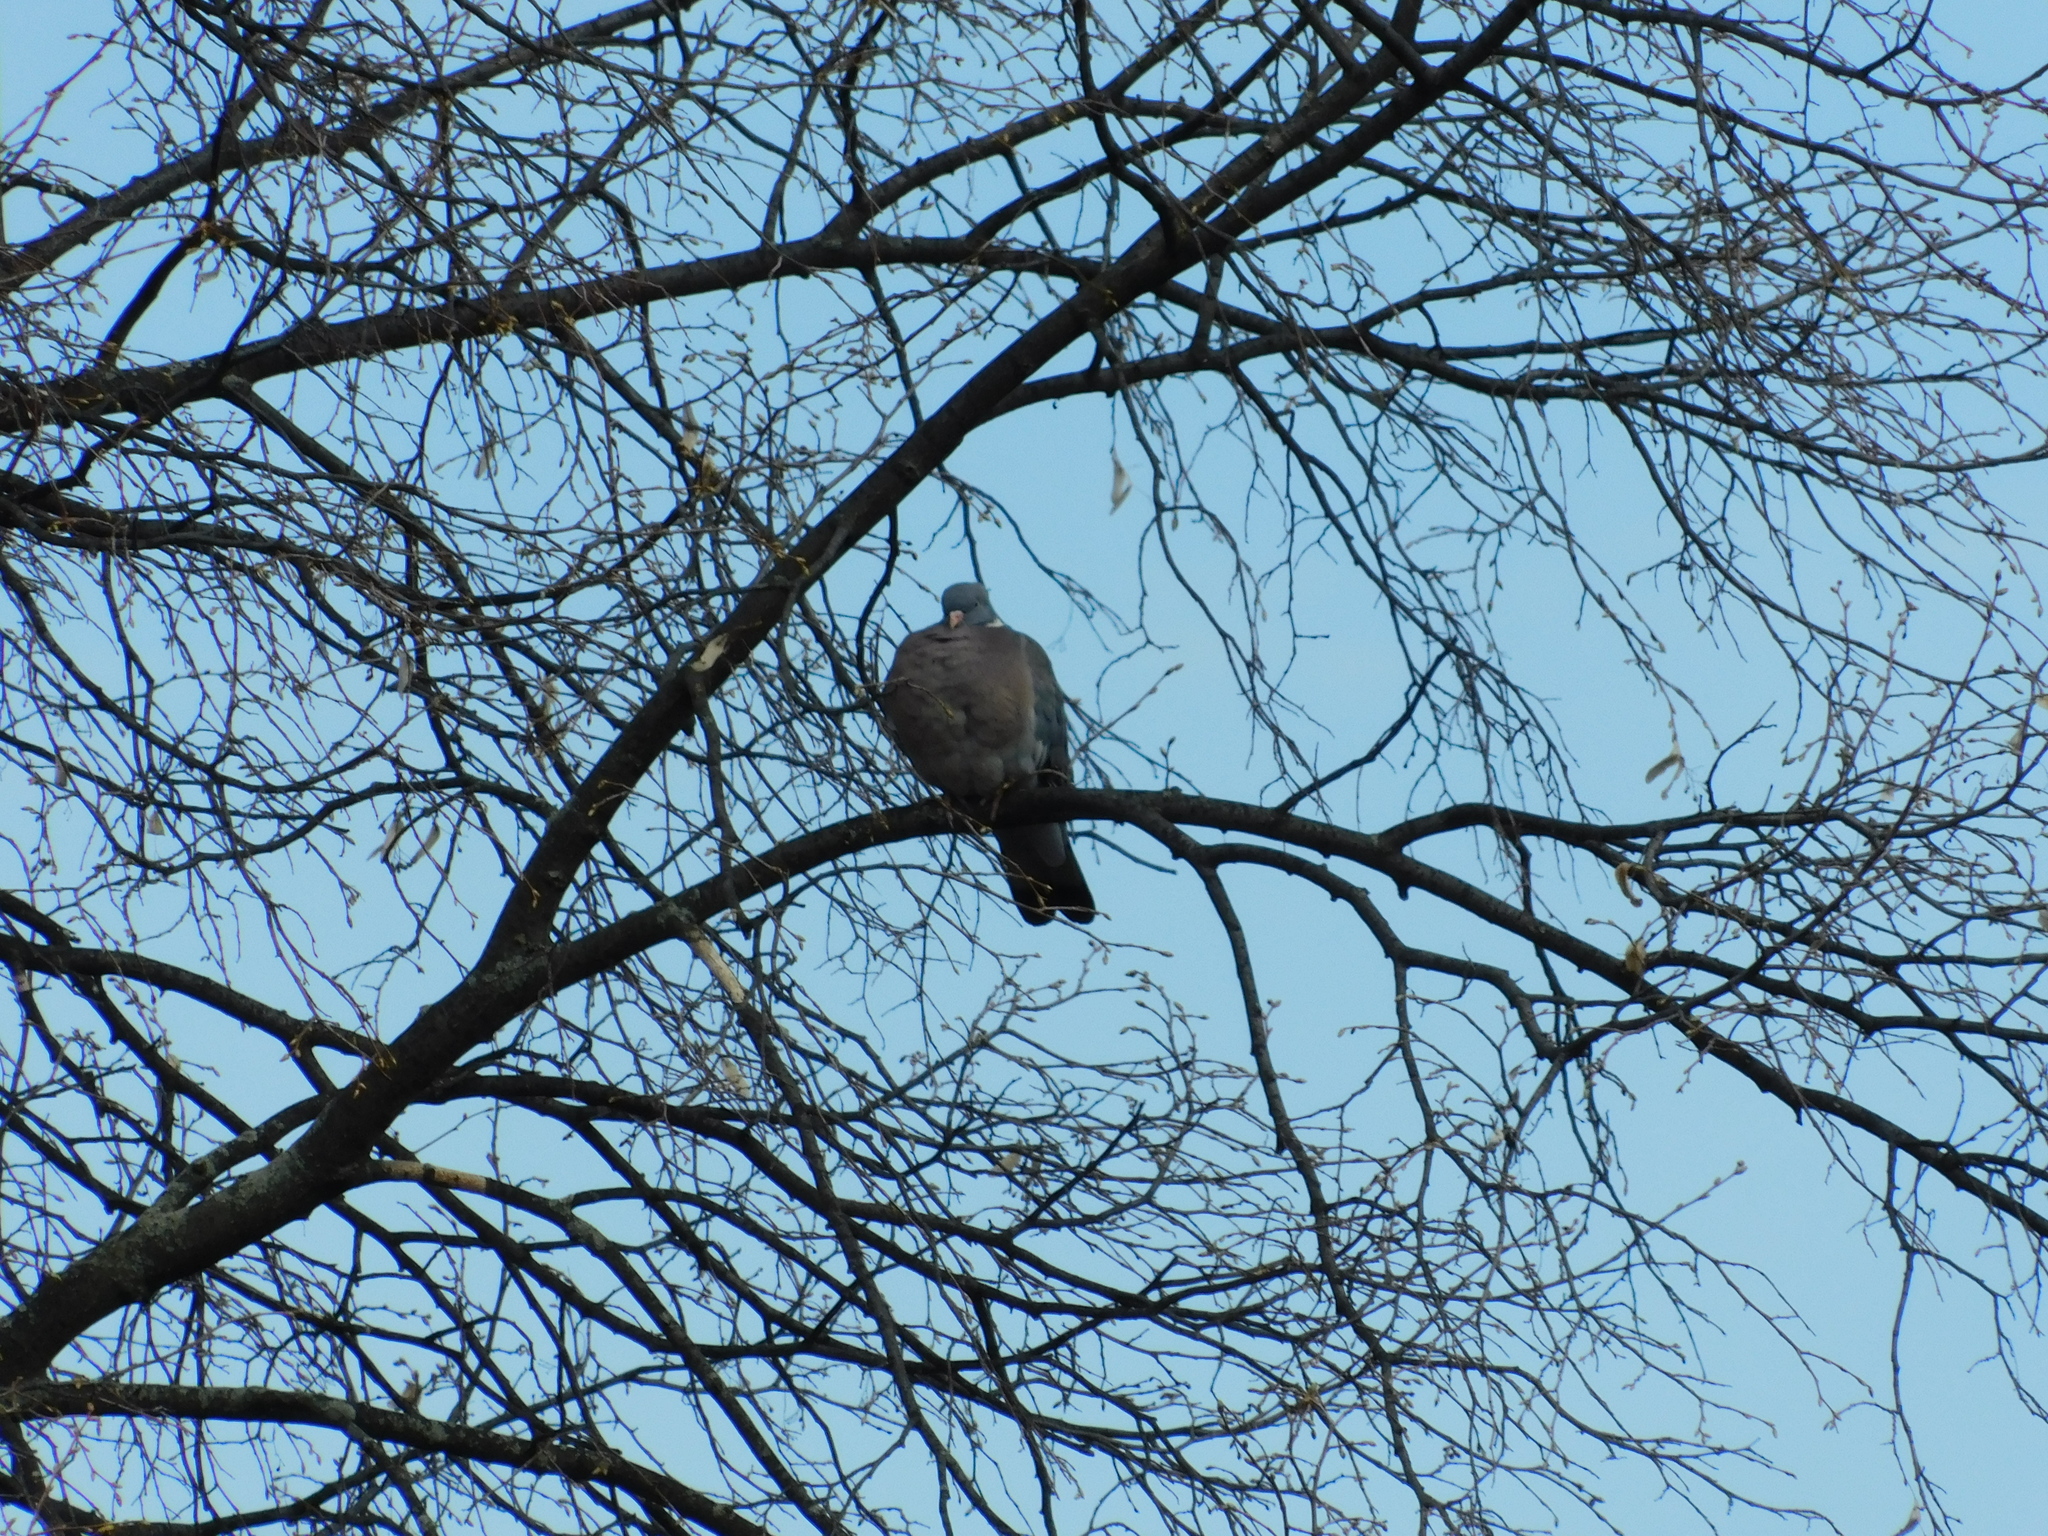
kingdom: Animalia
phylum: Chordata
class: Aves
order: Columbiformes
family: Columbidae
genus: Columba
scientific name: Columba palumbus
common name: Common wood pigeon
